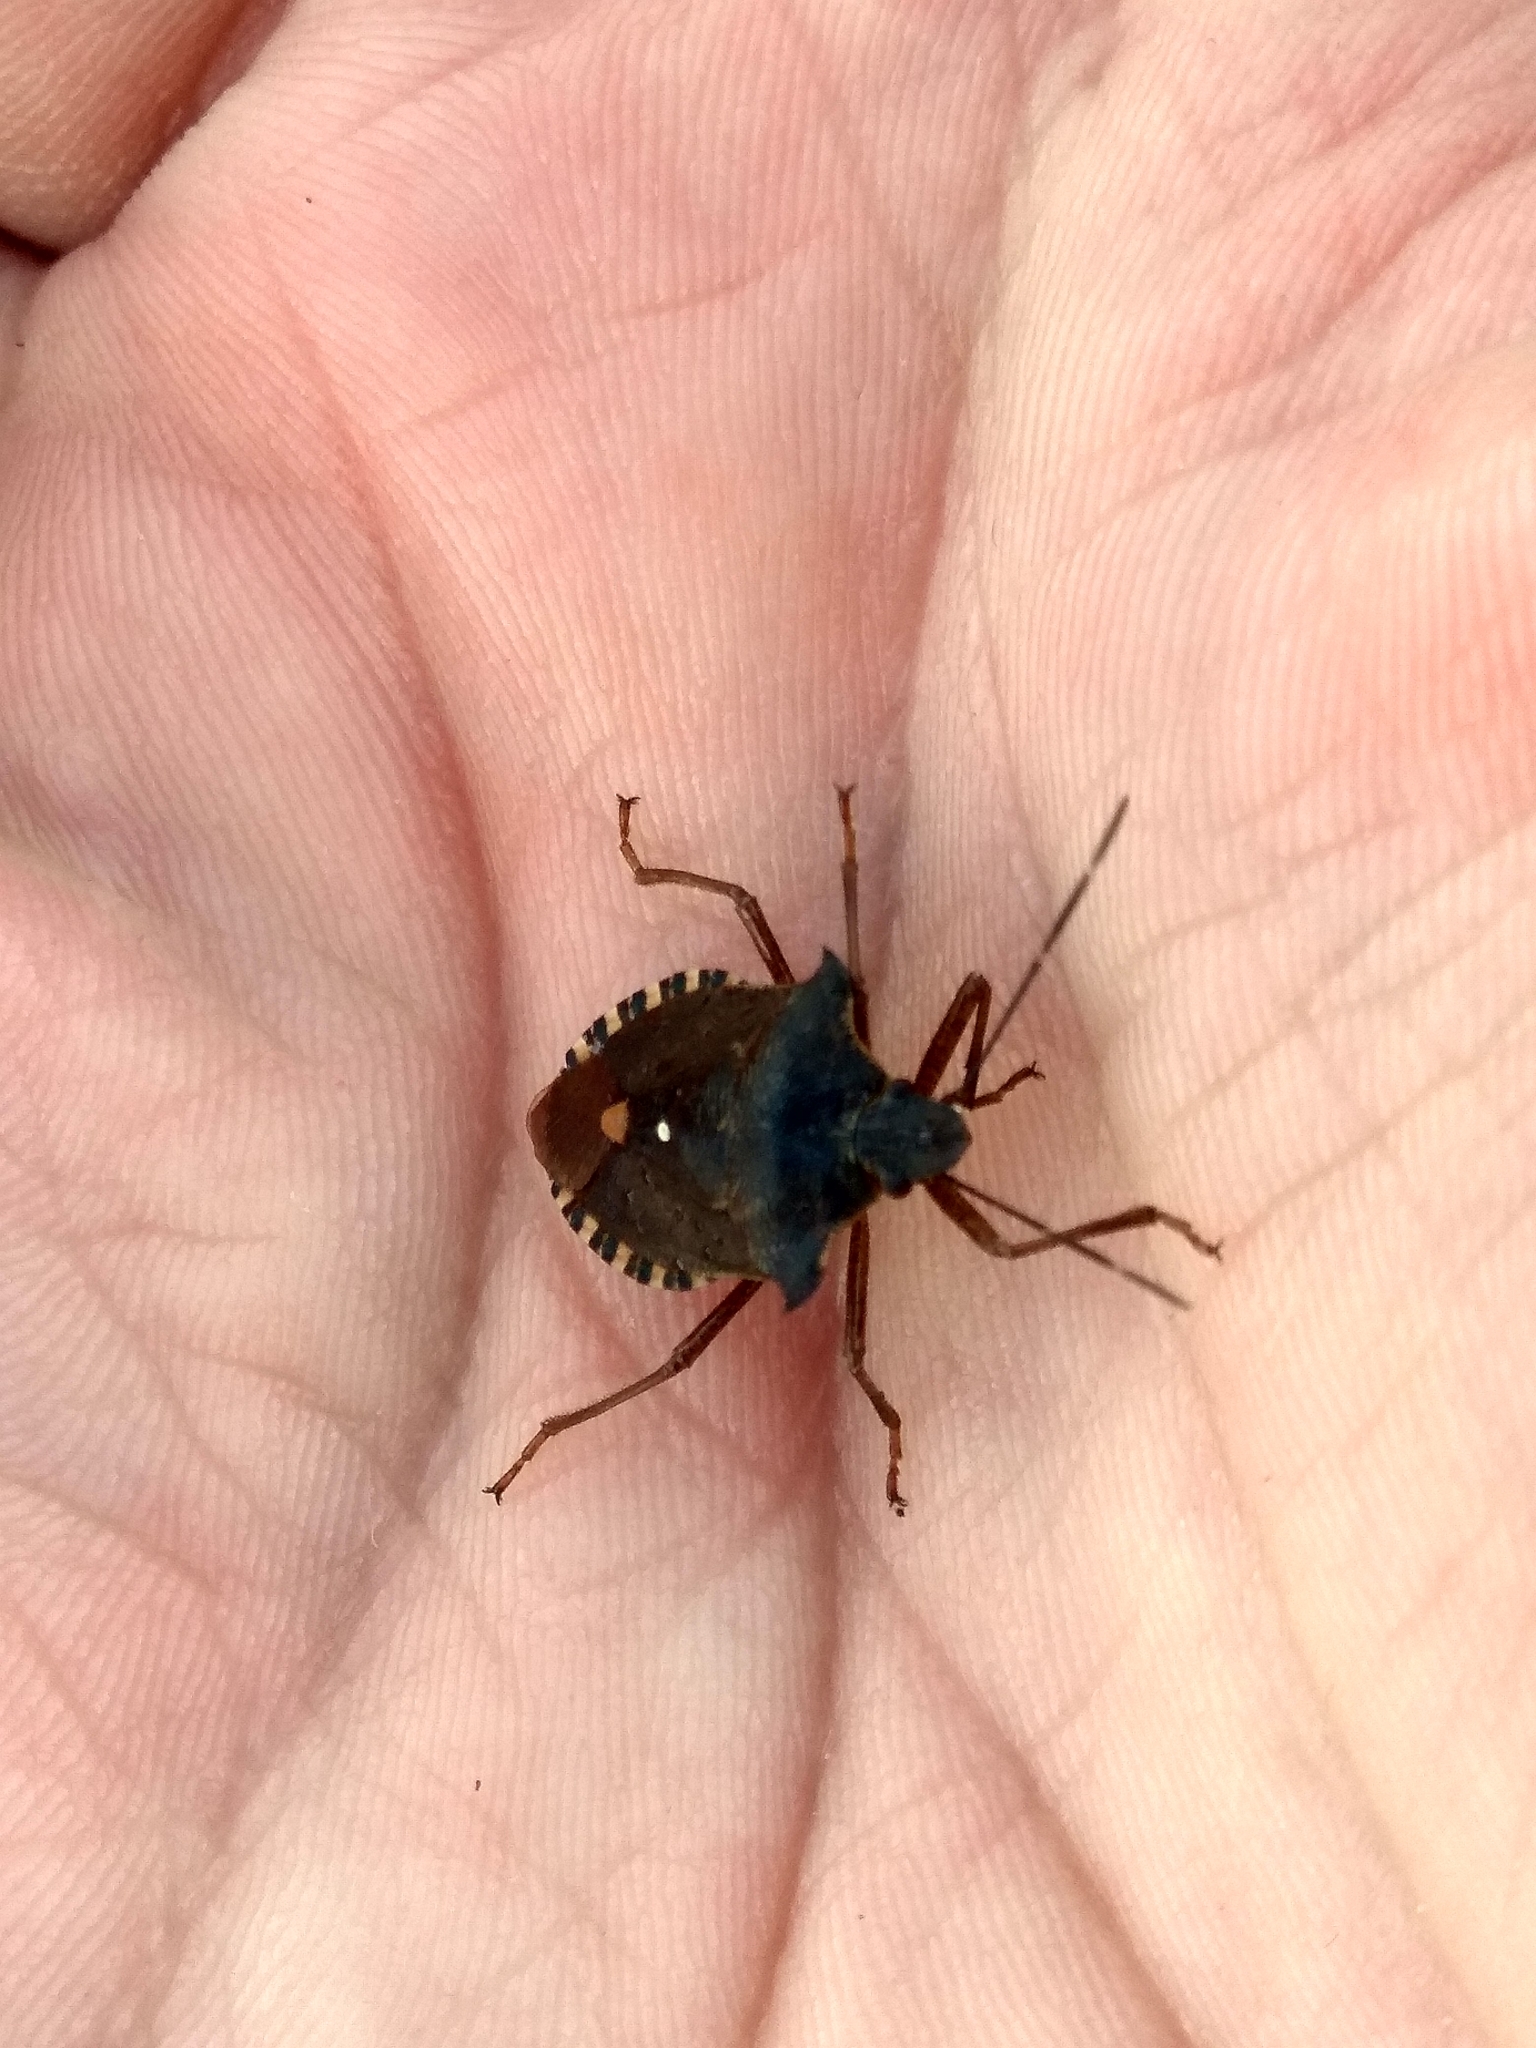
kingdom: Animalia
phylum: Arthropoda
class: Insecta
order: Hemiptera
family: Pentatomidae
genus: Pentatoma
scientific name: Pentatoma rufipes
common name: Forest bug
